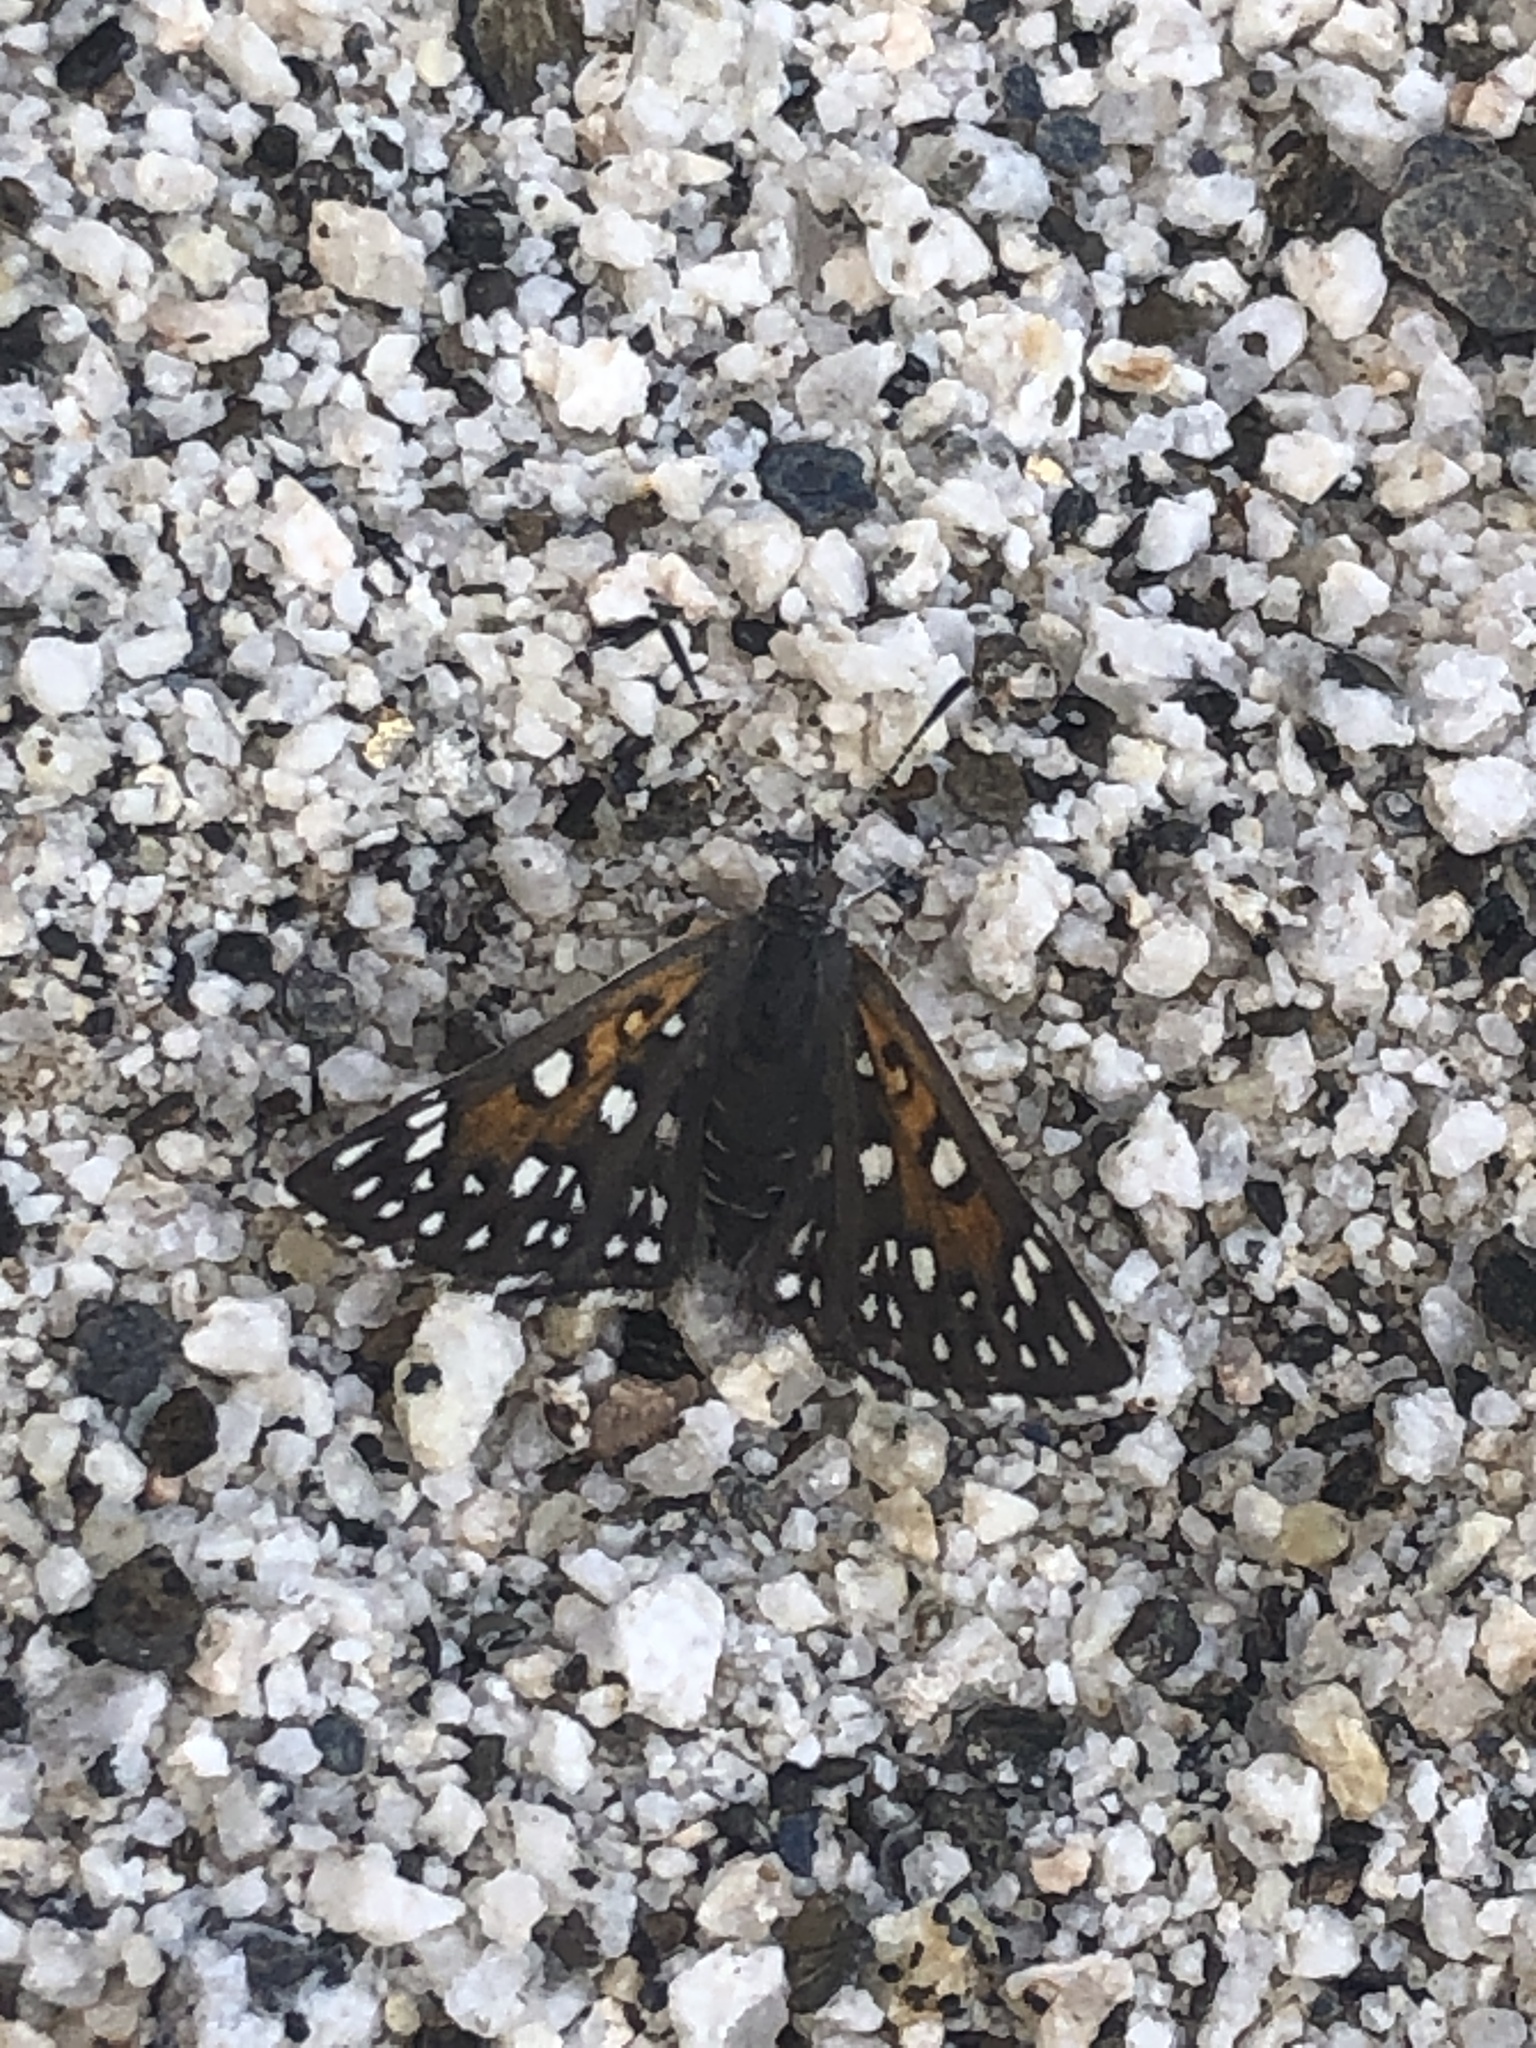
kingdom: Animalia
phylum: Arthropoda
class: Insecta
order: Lepidoptera
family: Riodinidae
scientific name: Riodinidae
